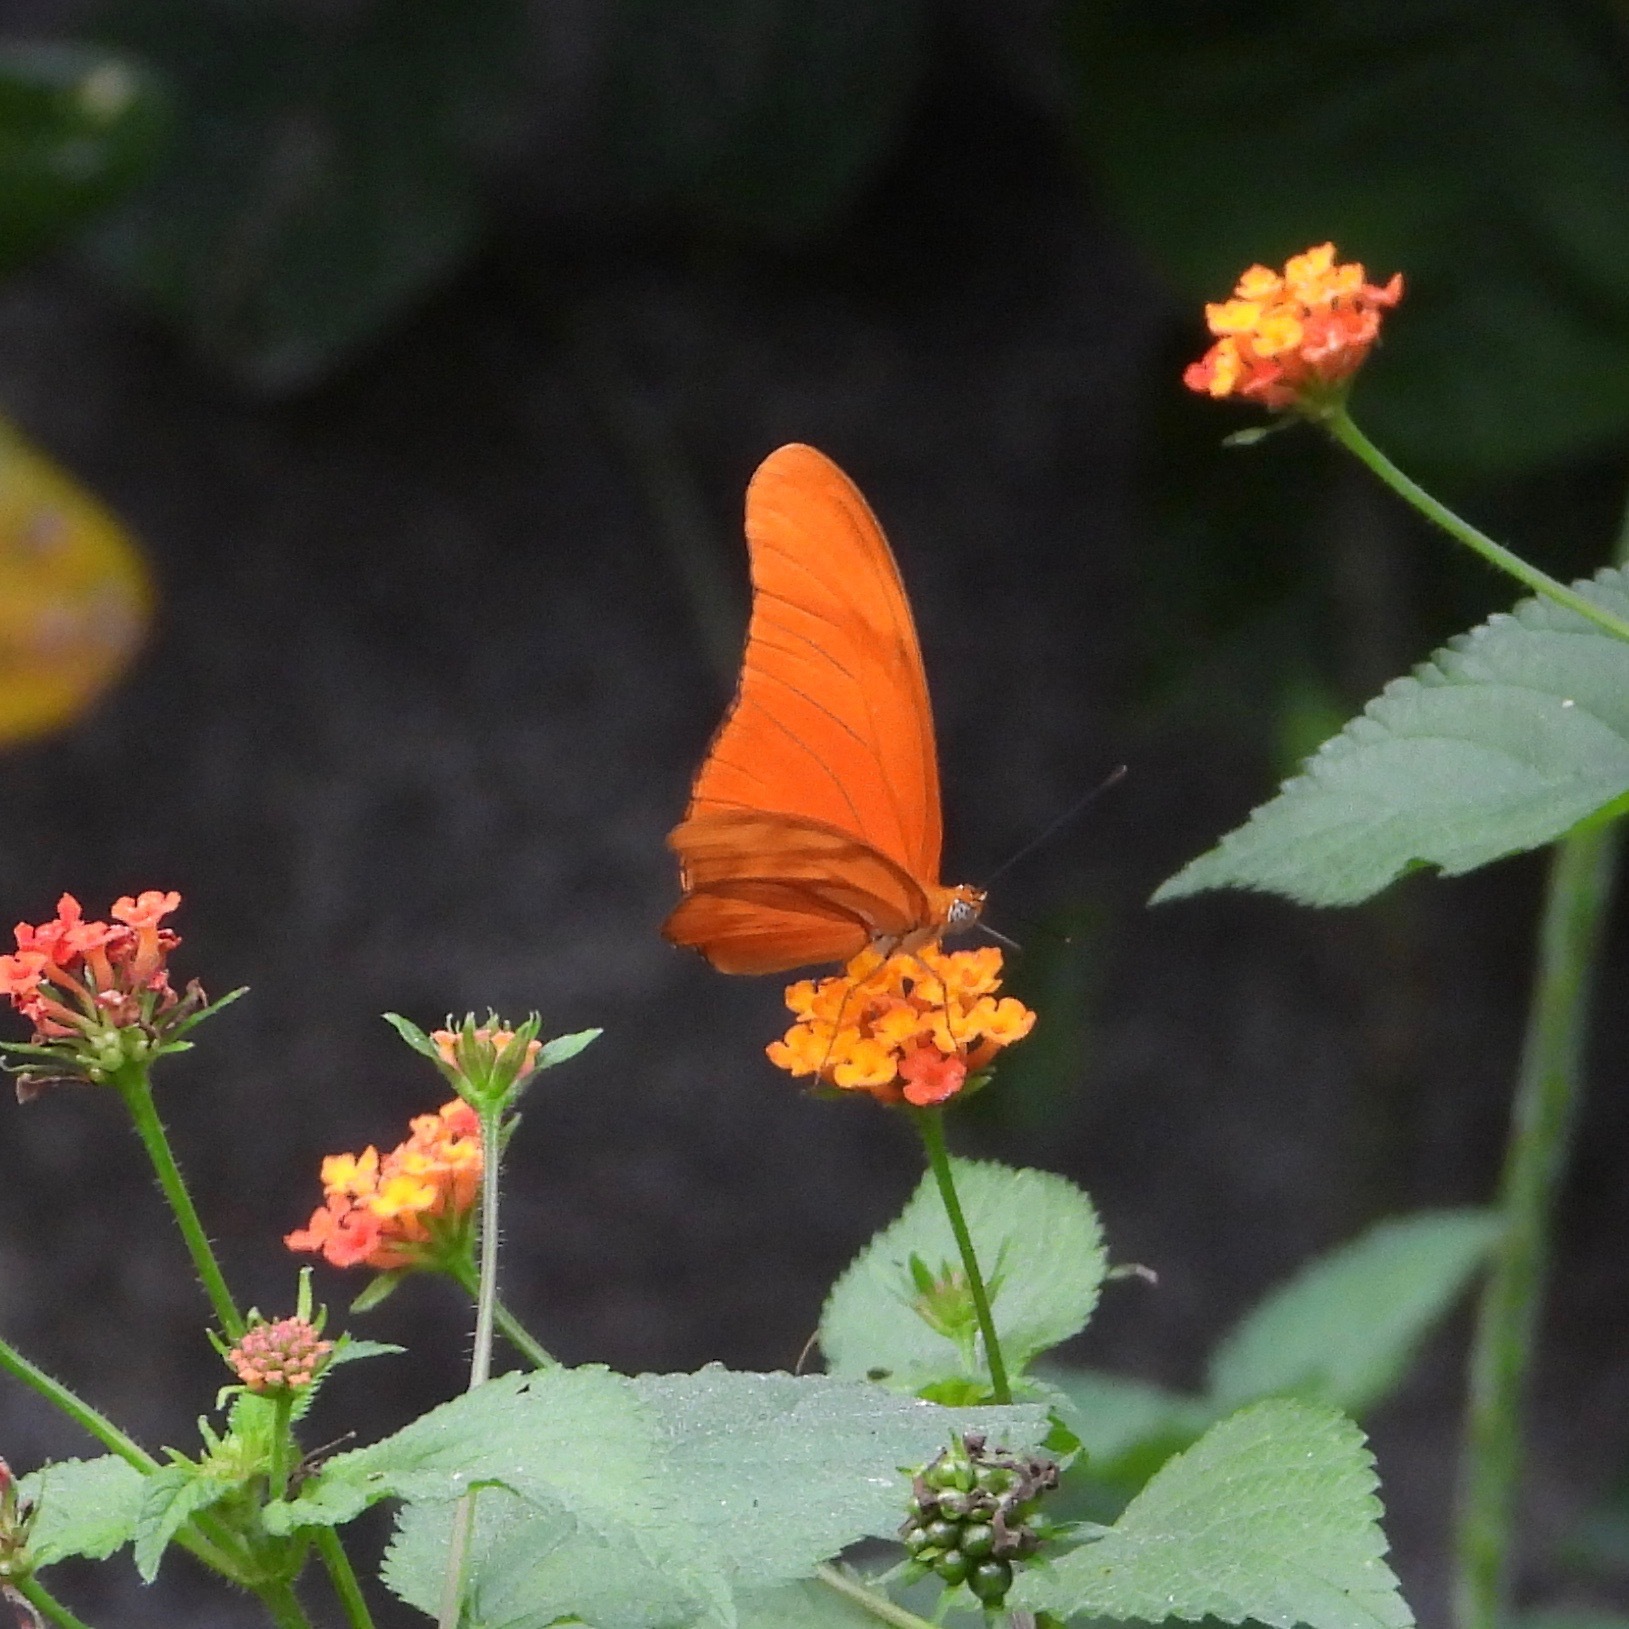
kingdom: Animalia
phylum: Arthropoda
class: Insecta
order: Lepidoptera
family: Nymphalidae
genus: Dryas
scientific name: Dryas iulia
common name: Flambeau
